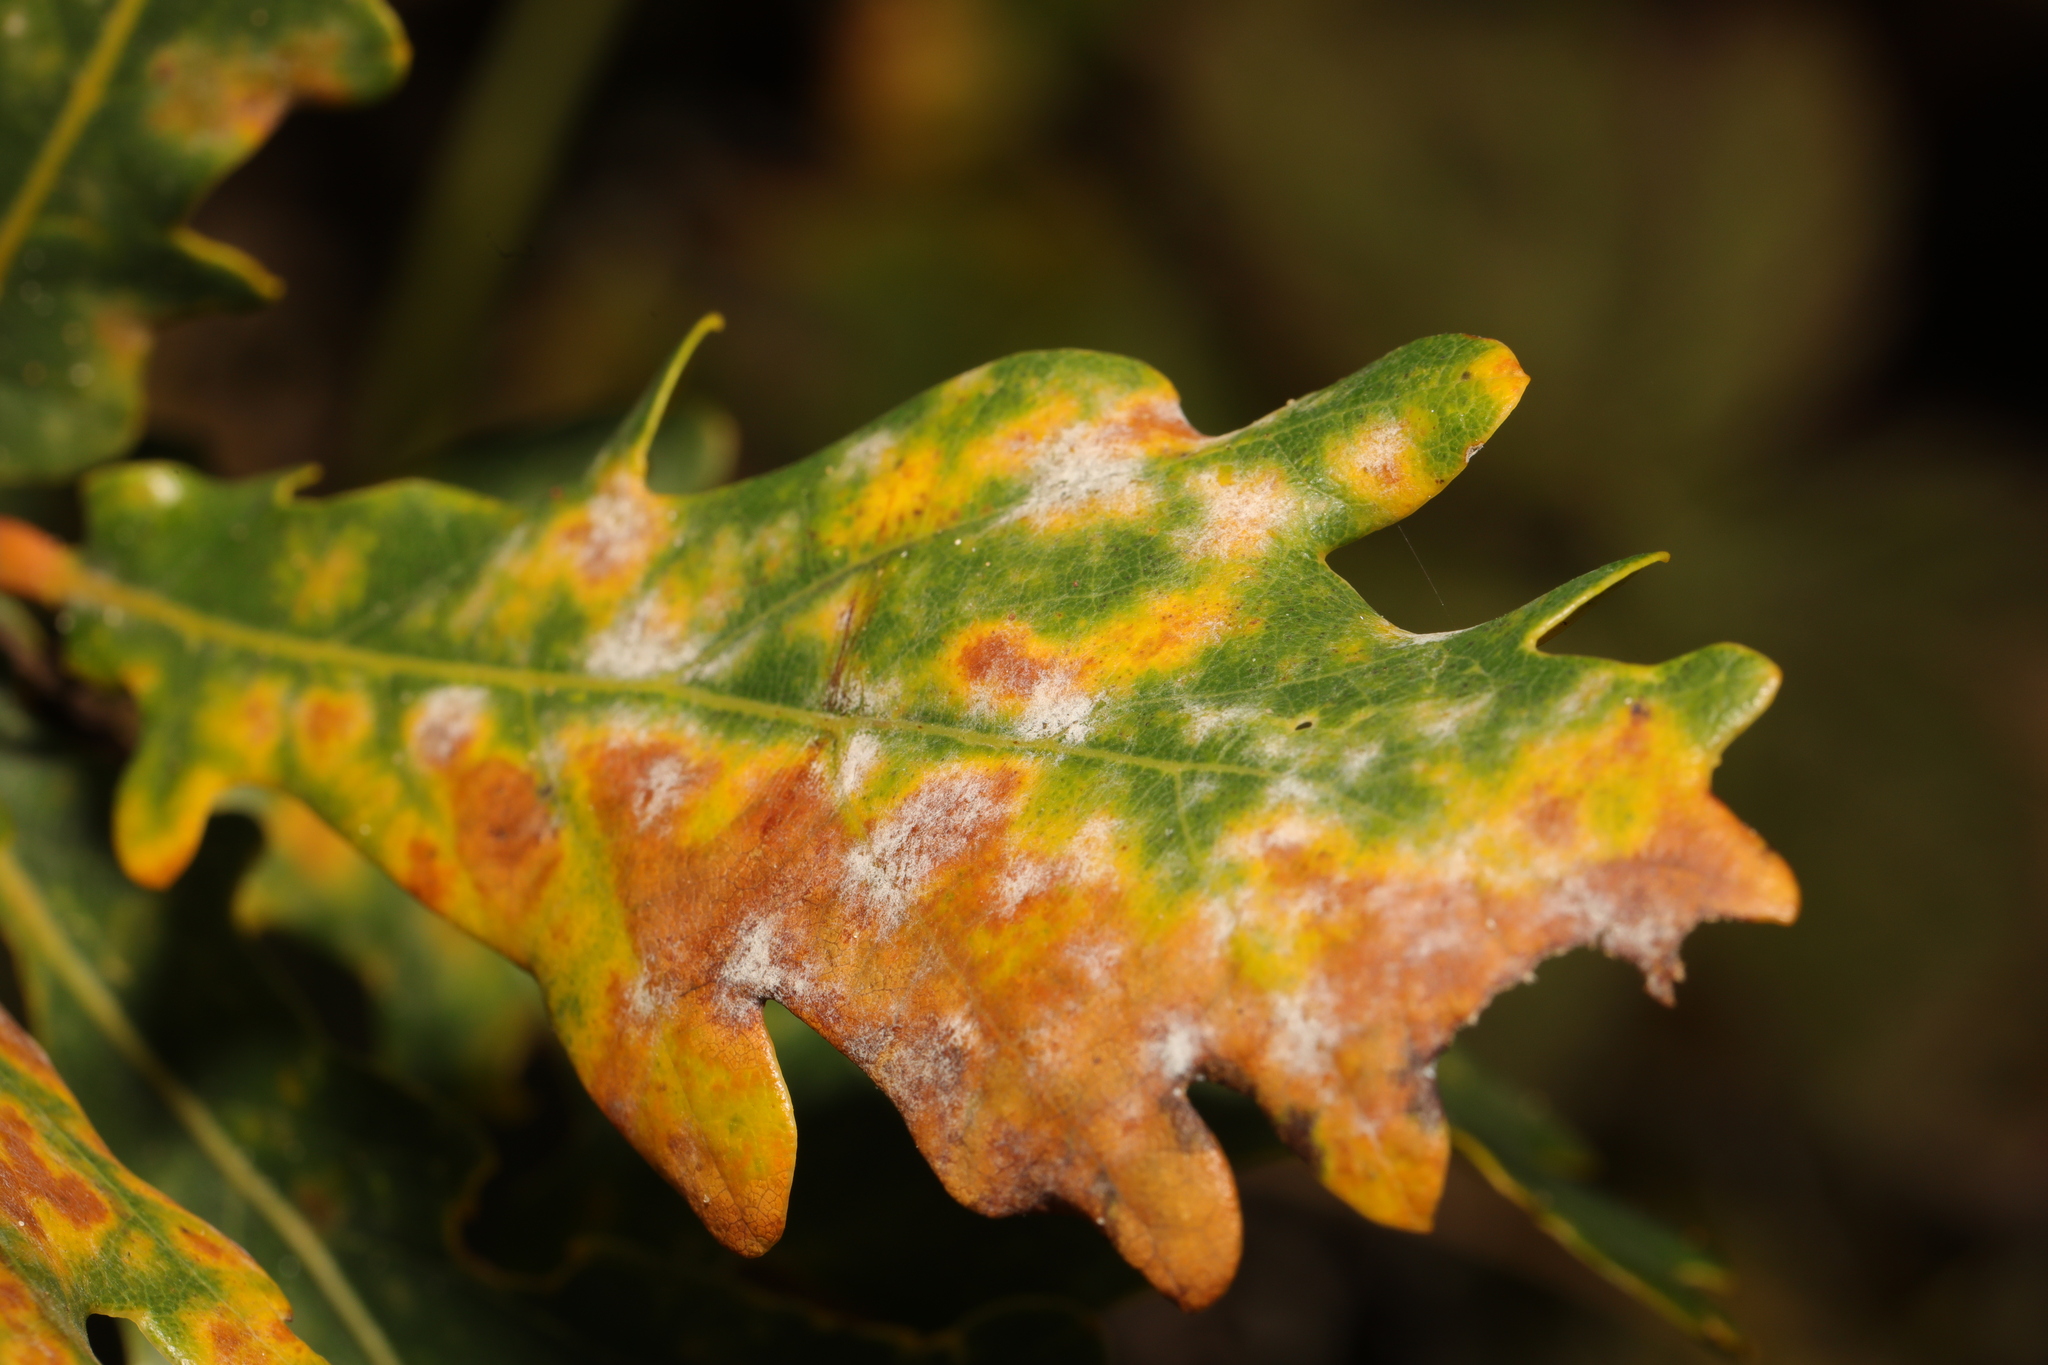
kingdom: Fungi
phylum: Ascomycota
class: Leotiomycetes
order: Helotiales
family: Erysiphaceae
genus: Erysiphe
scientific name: Erysiphe alphitoides
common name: Oak mildew
